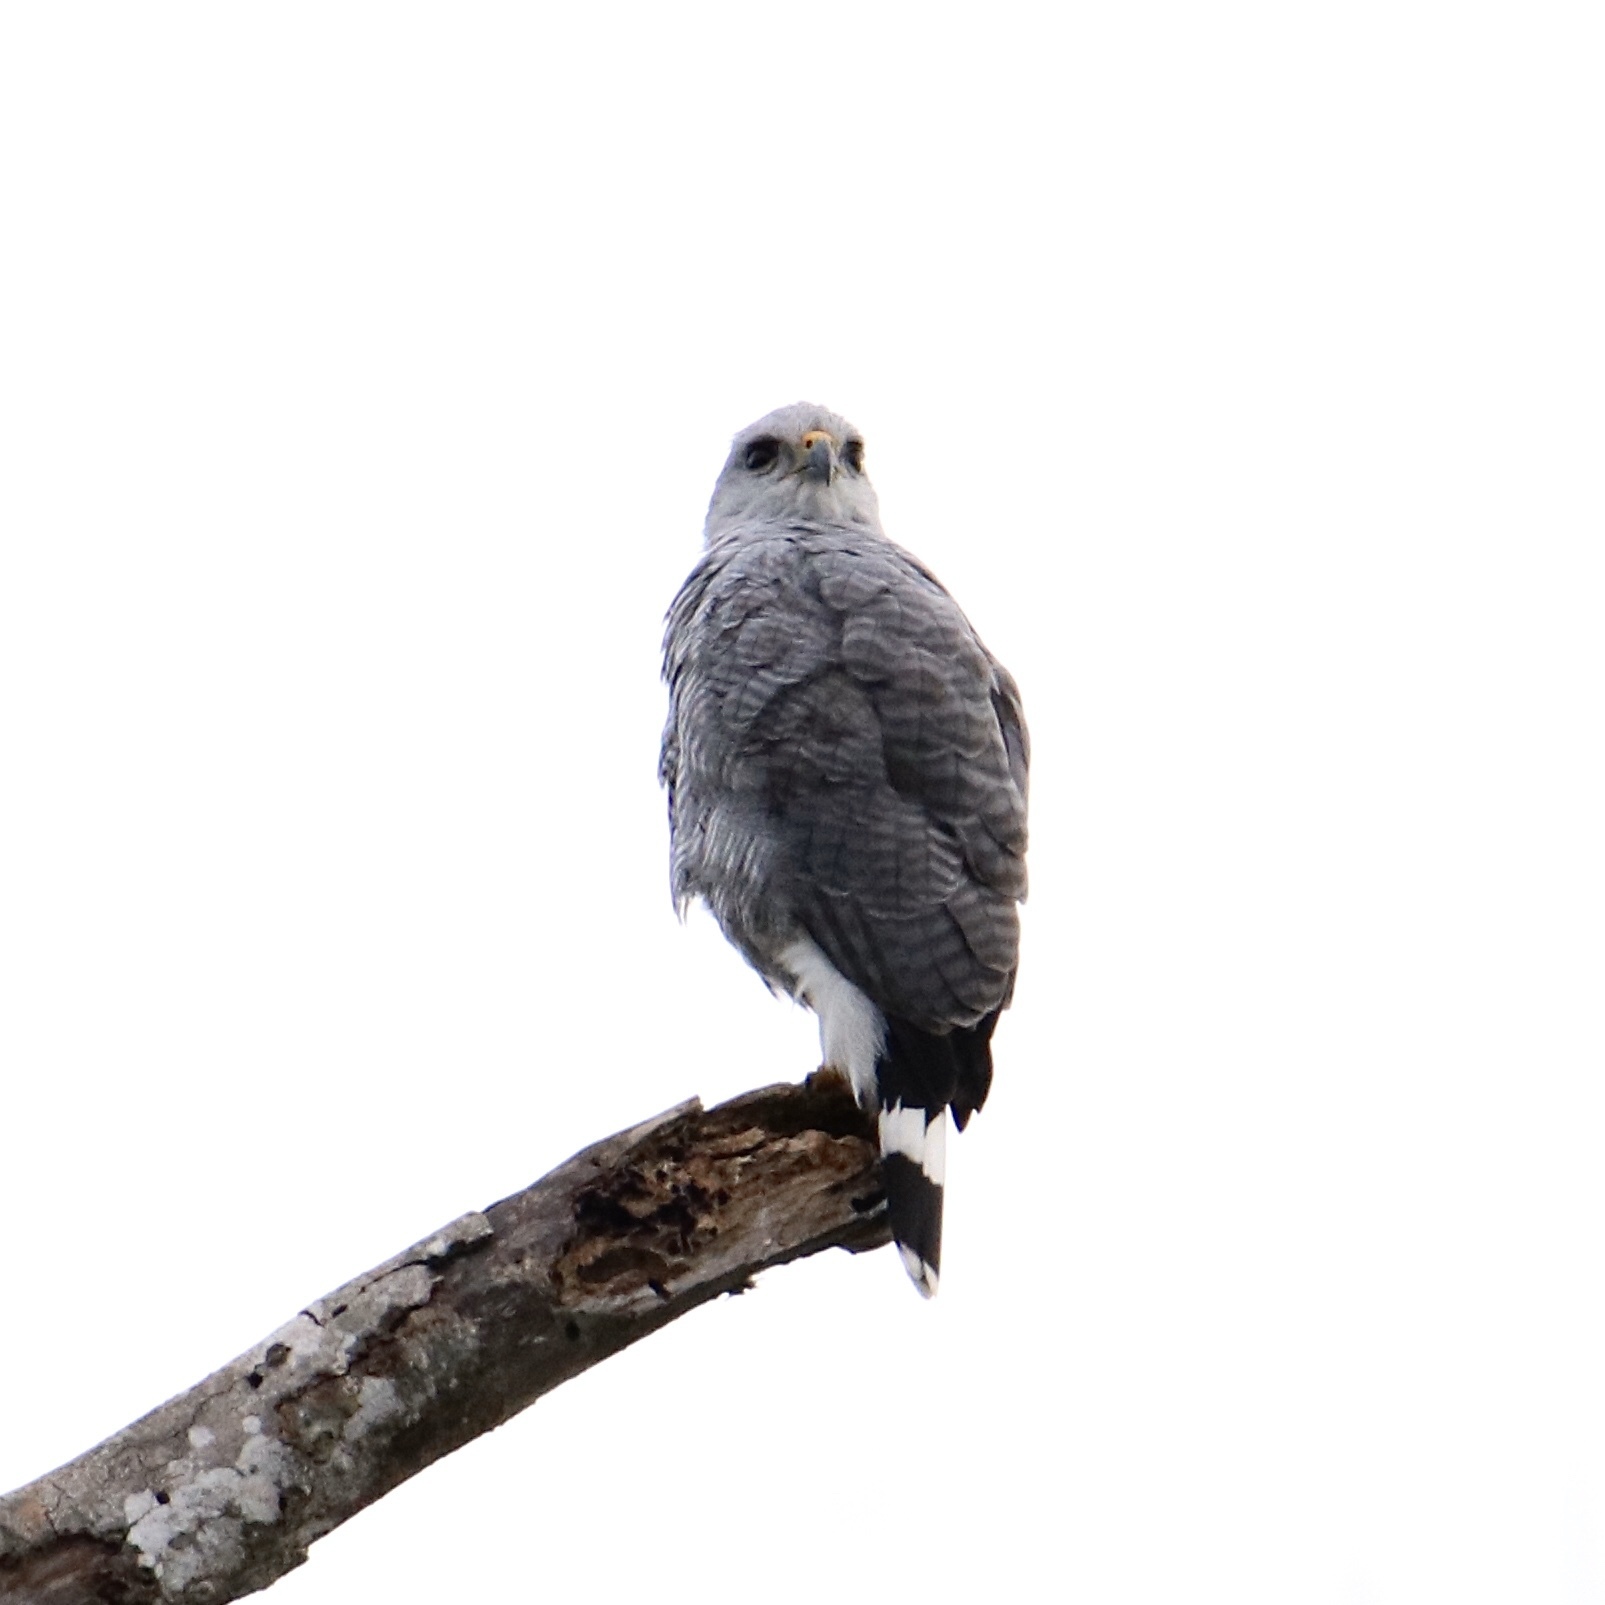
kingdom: Animalia
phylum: Chordata
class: Aves
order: Accipitriformes
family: Accipitridae
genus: Buteo
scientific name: Buteo nitidus
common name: Grey-lined hawk
